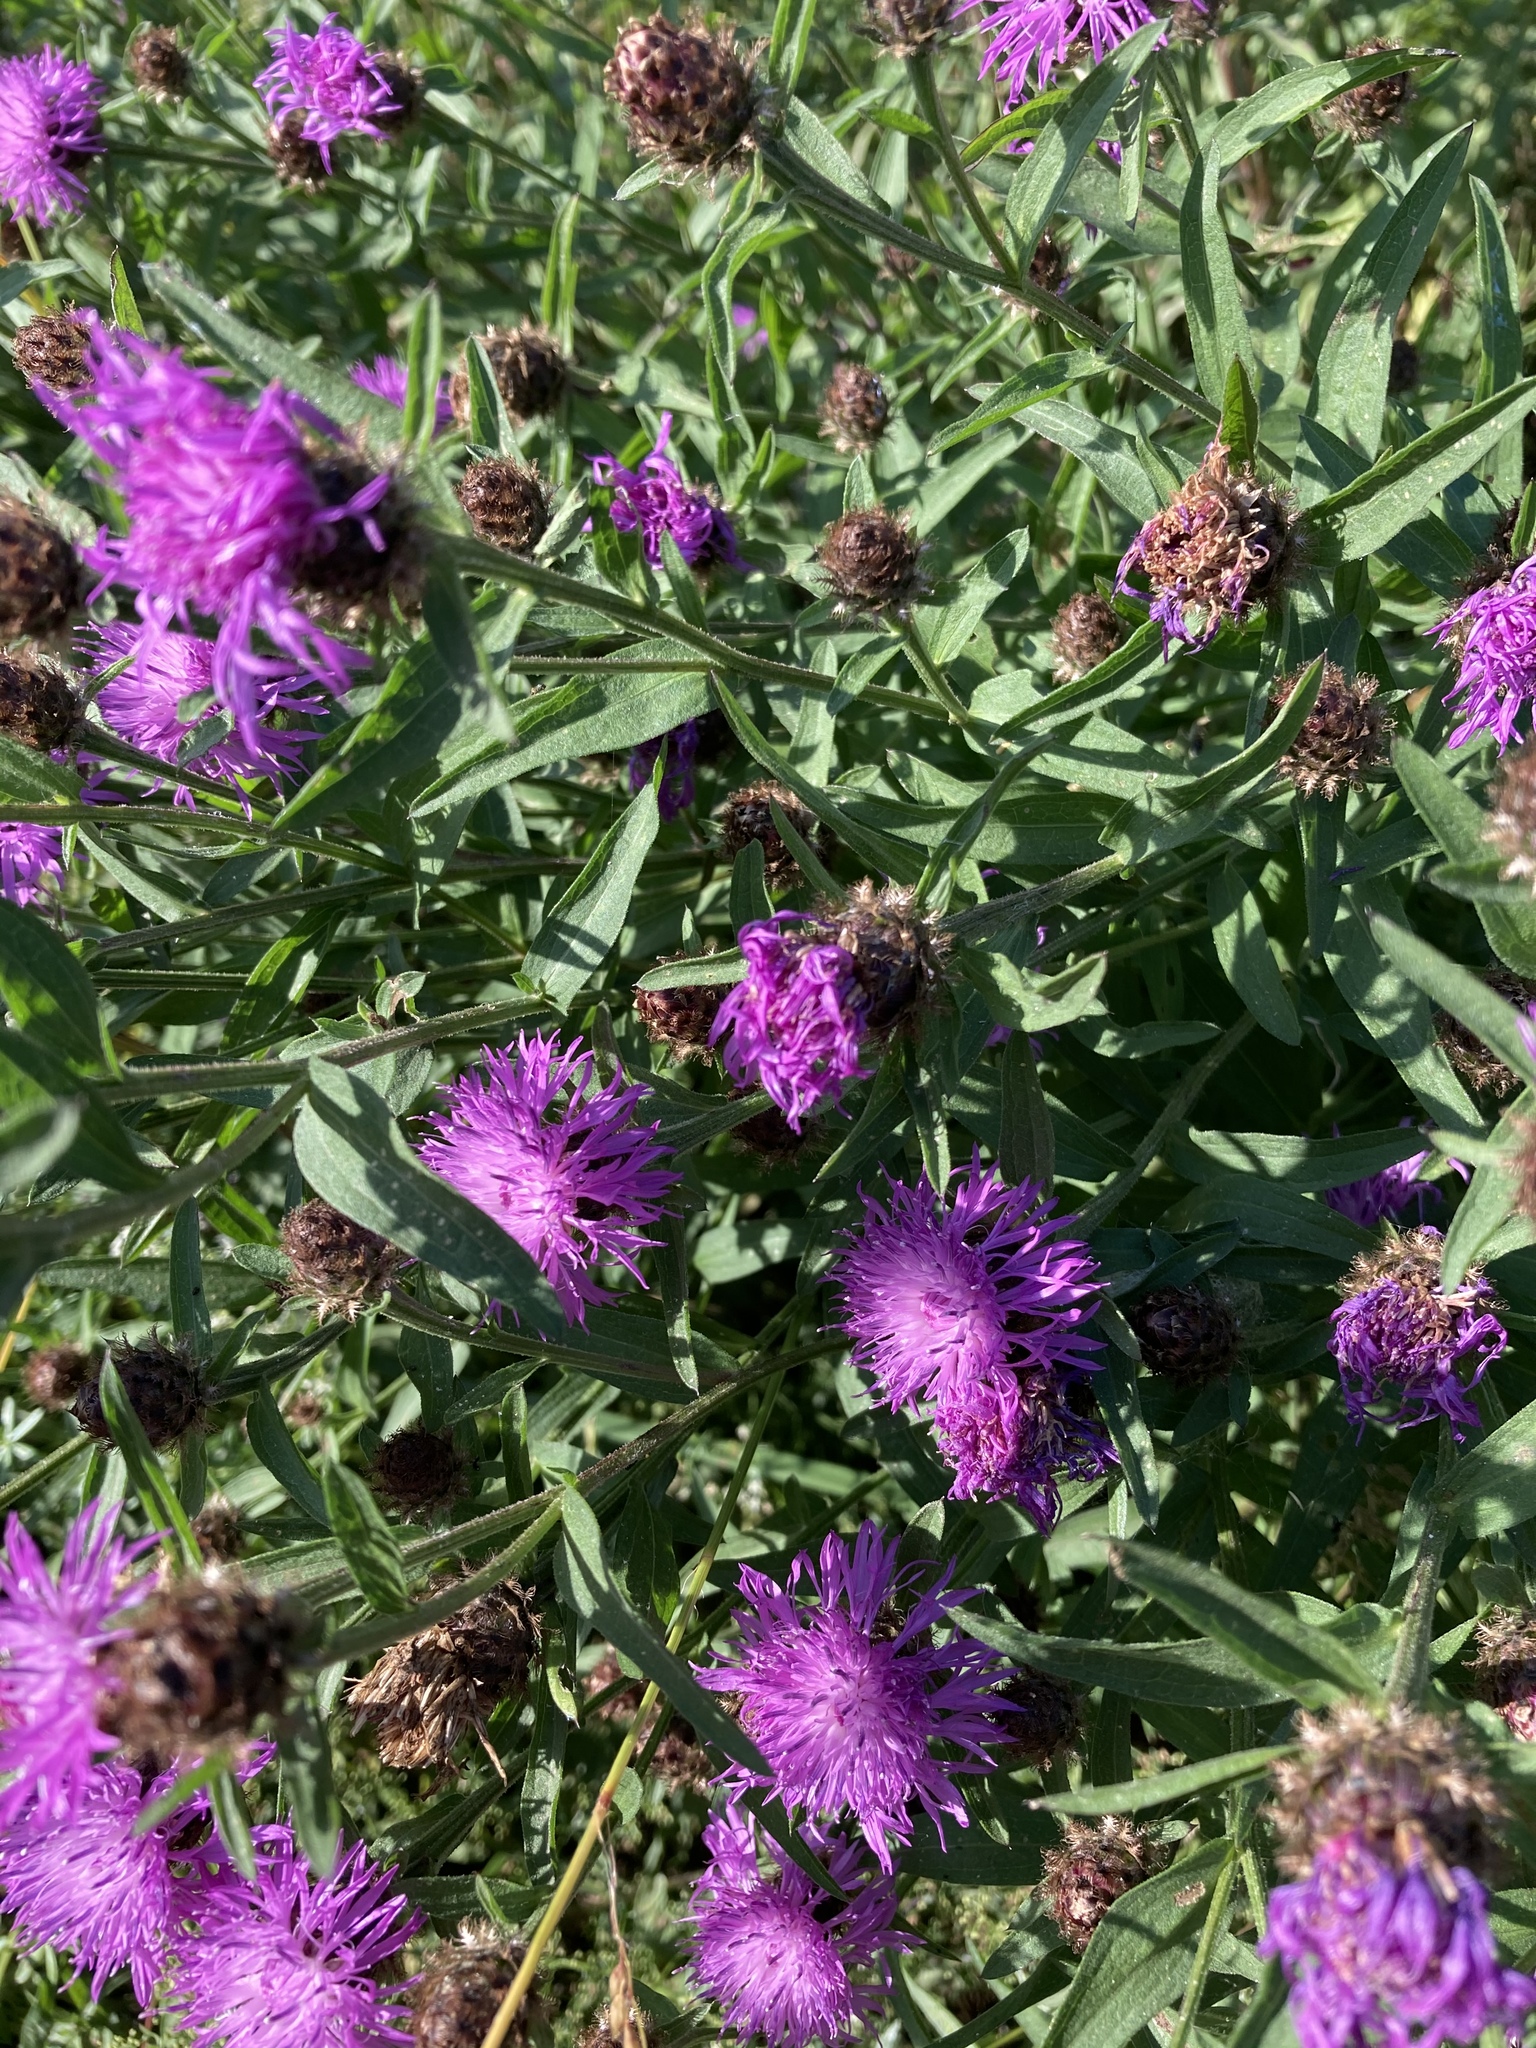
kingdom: Plantae
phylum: Tracheophyta
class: Magnoliopsida
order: Asterales
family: Asteraceae
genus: Centaurea
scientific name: Centaurea jacea
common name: Brown knapweed
